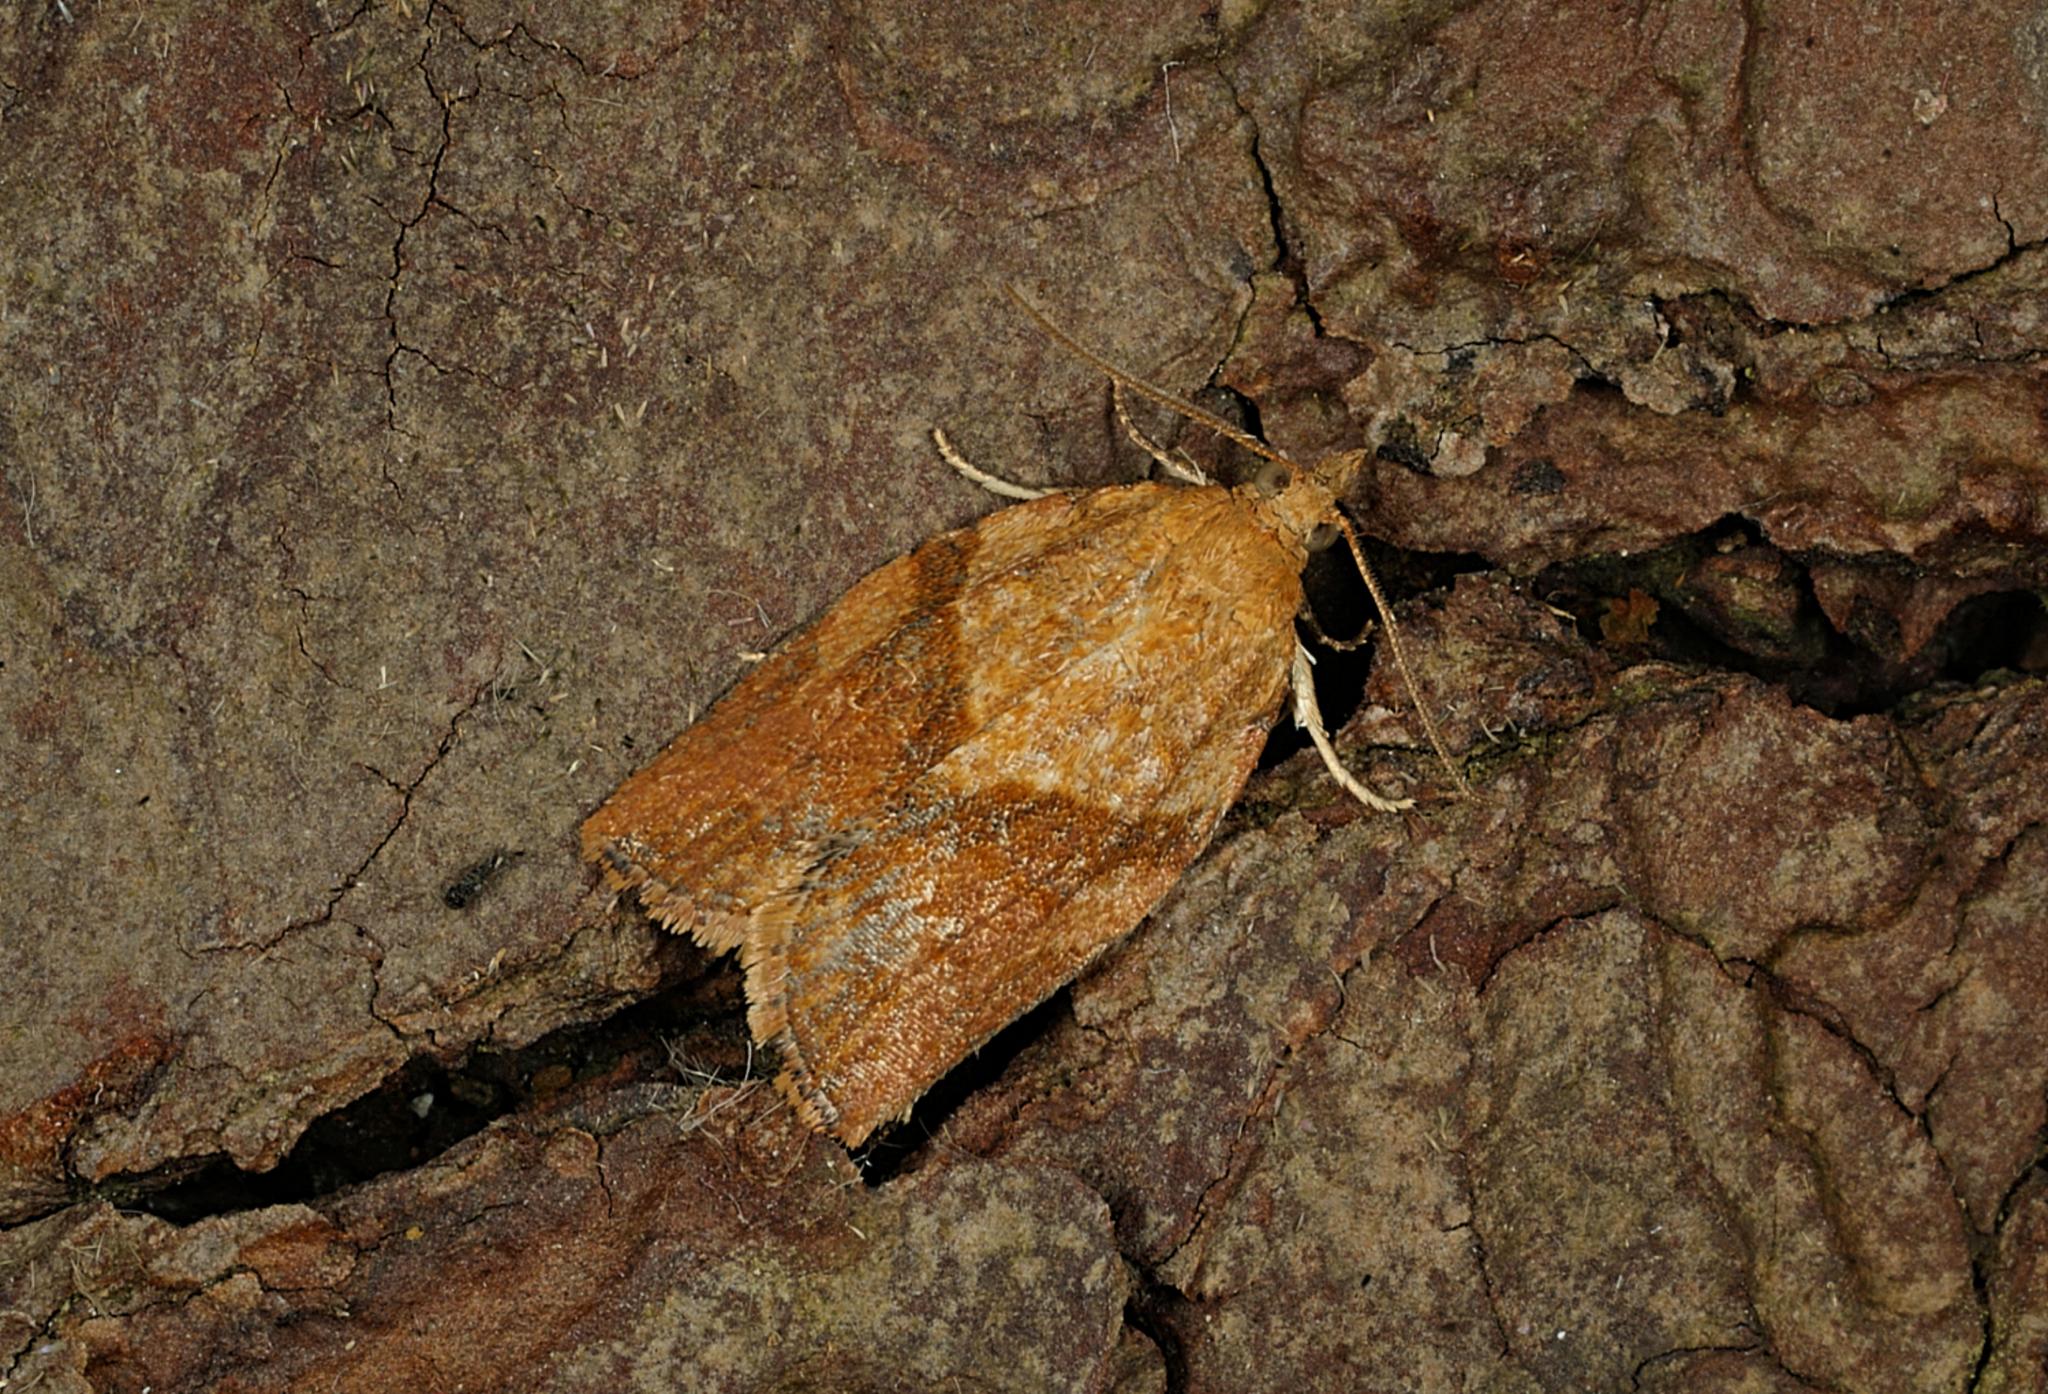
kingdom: Animalia
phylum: Arthropoda
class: Insecta
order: Lepidoptera
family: Tortricidae
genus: Epiphyas
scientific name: Epiphyas postvittana
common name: Light brown apple moth
